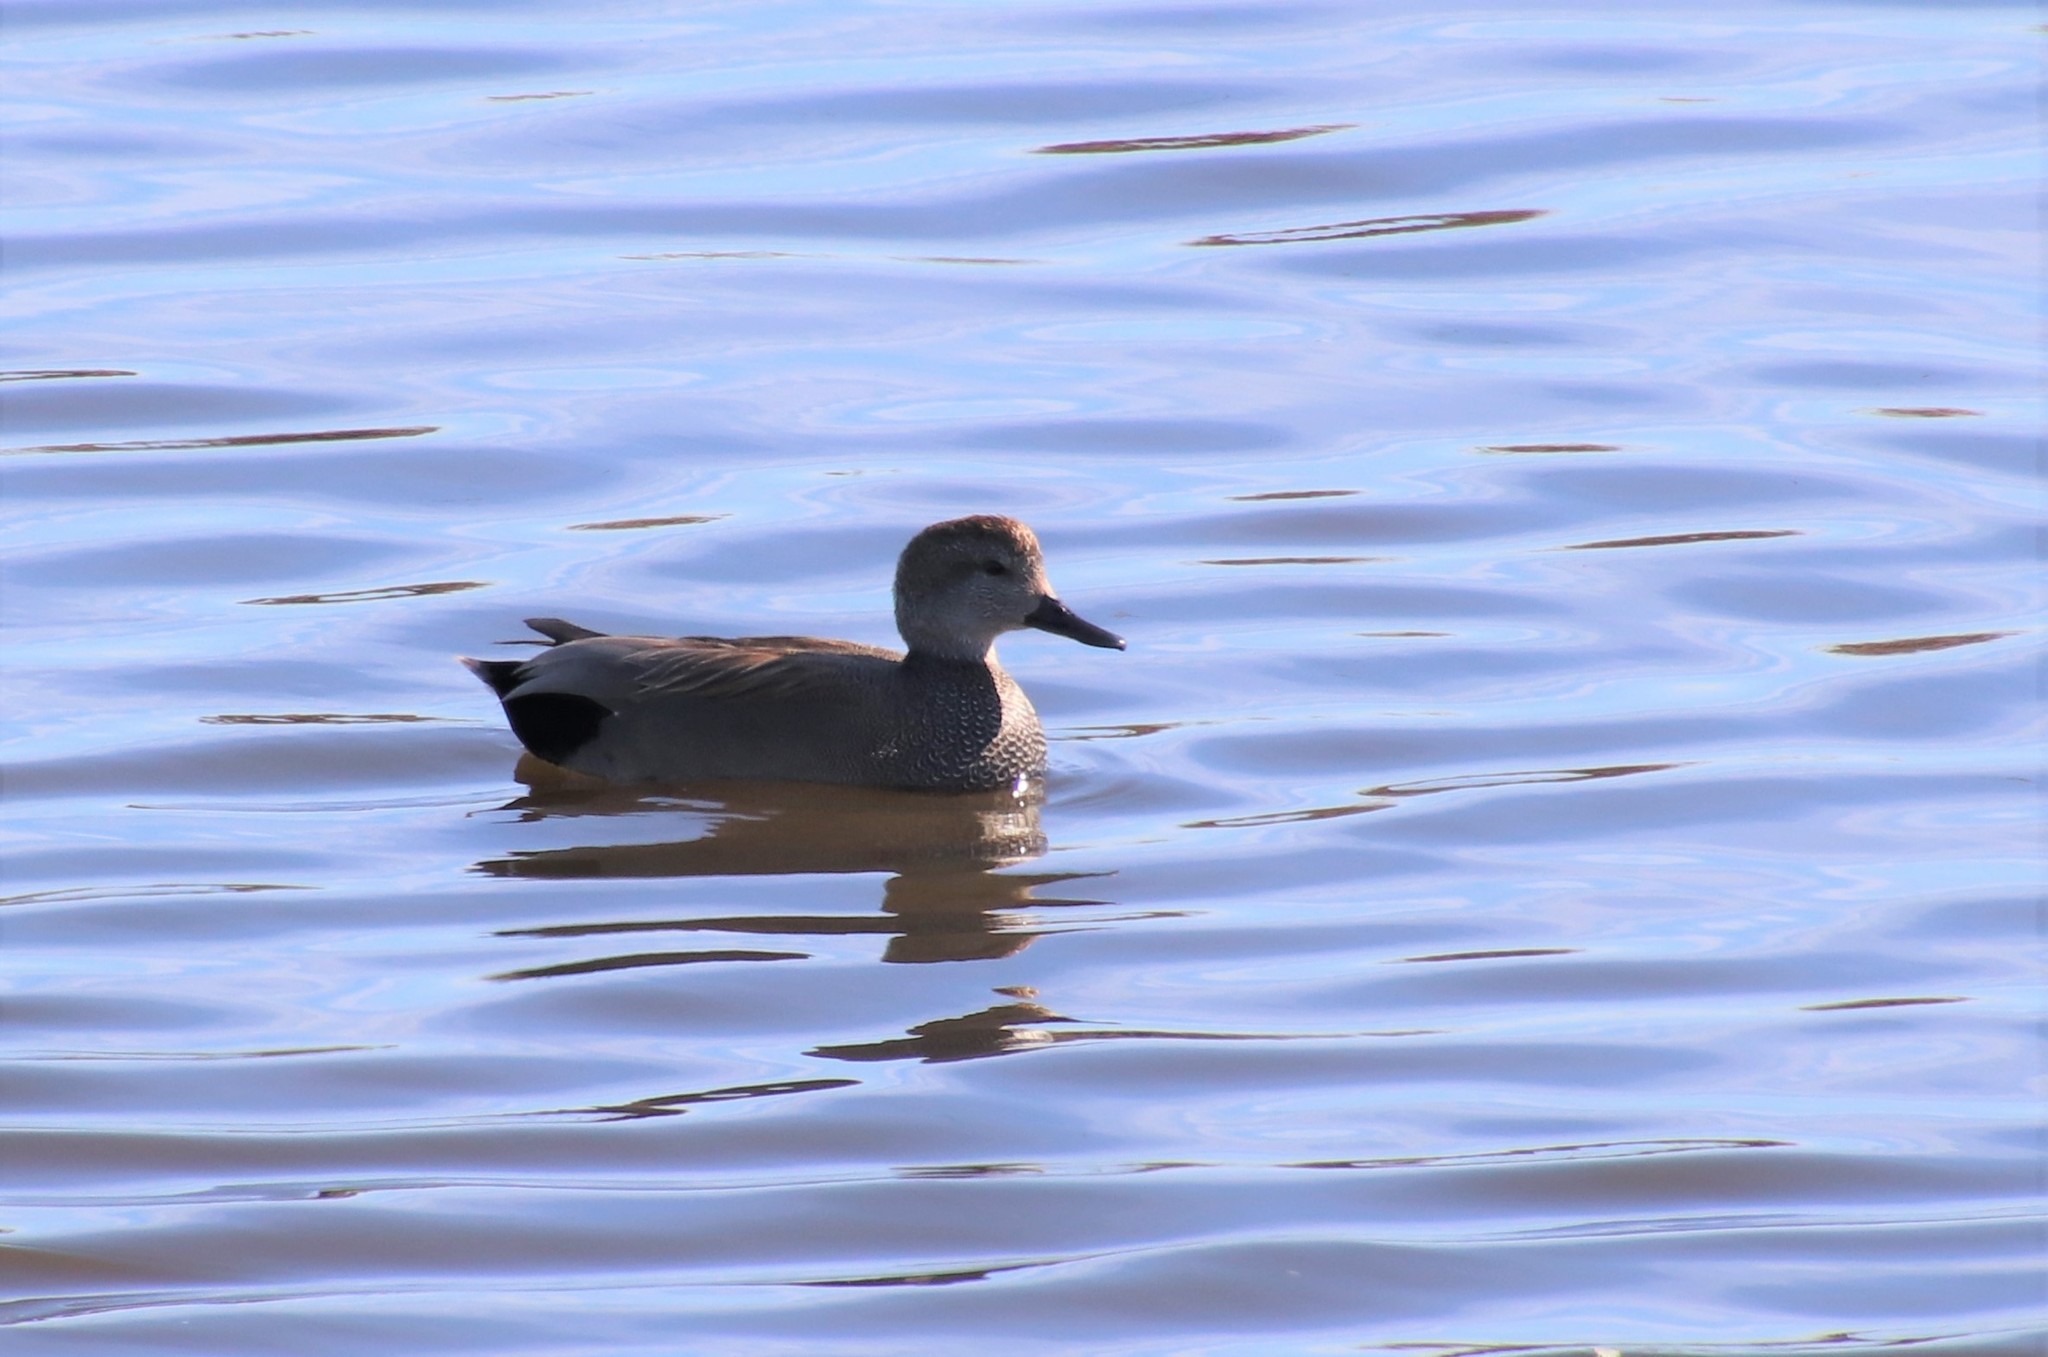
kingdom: Animalia
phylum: Chordata
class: Aves
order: Anseriformes
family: Anatidae
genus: Mareca
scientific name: Mareca strepera
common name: Gadwall
